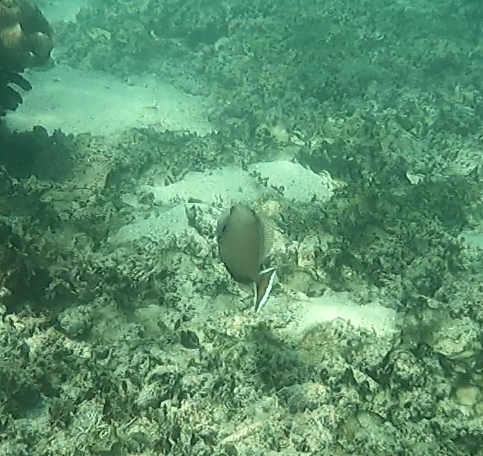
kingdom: Animalia
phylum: Chordata
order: Tetraodontiformes
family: Balistidae
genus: Sufflamen
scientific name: Sufflamen chrysopterum
